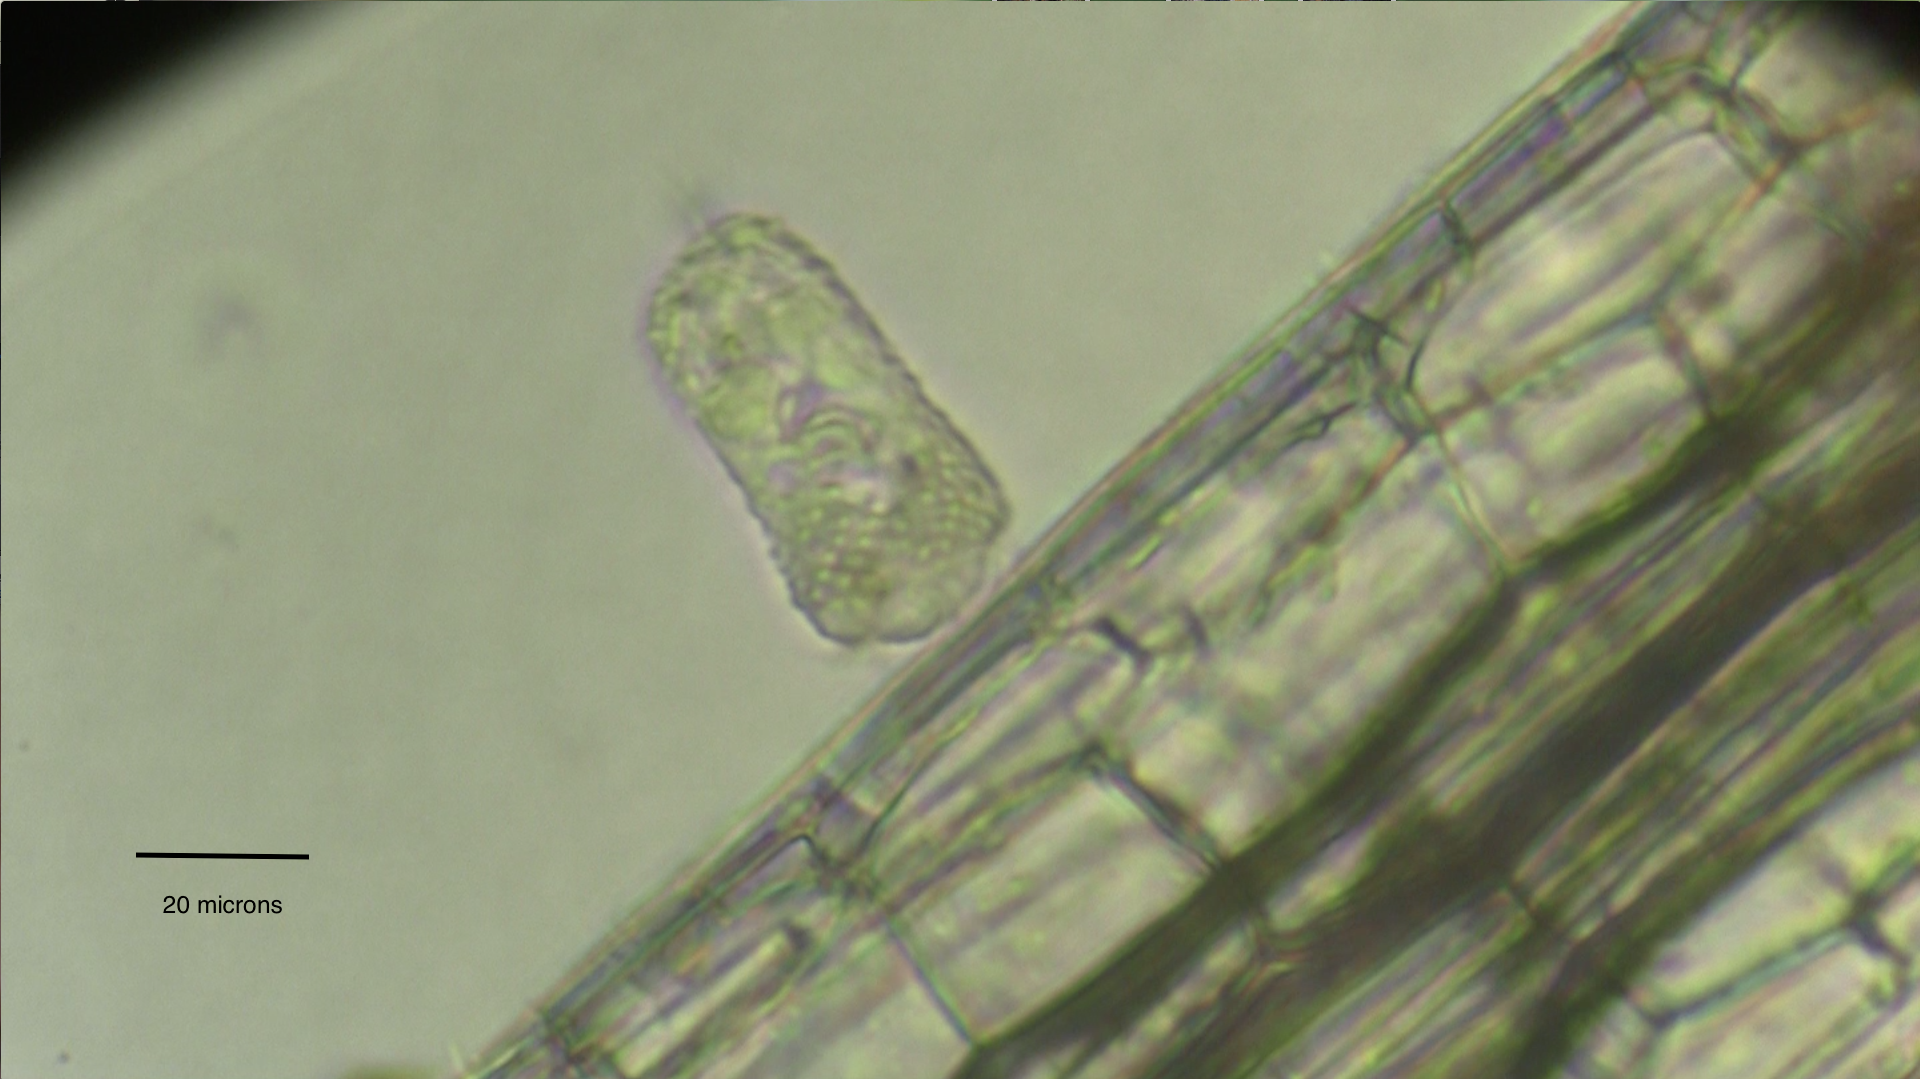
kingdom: Chromista
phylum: Ciliophora
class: Oligohymenophorea
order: Peritrichida
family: Vorticellidae
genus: Pseudovorticella
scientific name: Pseudovorticella monilata
